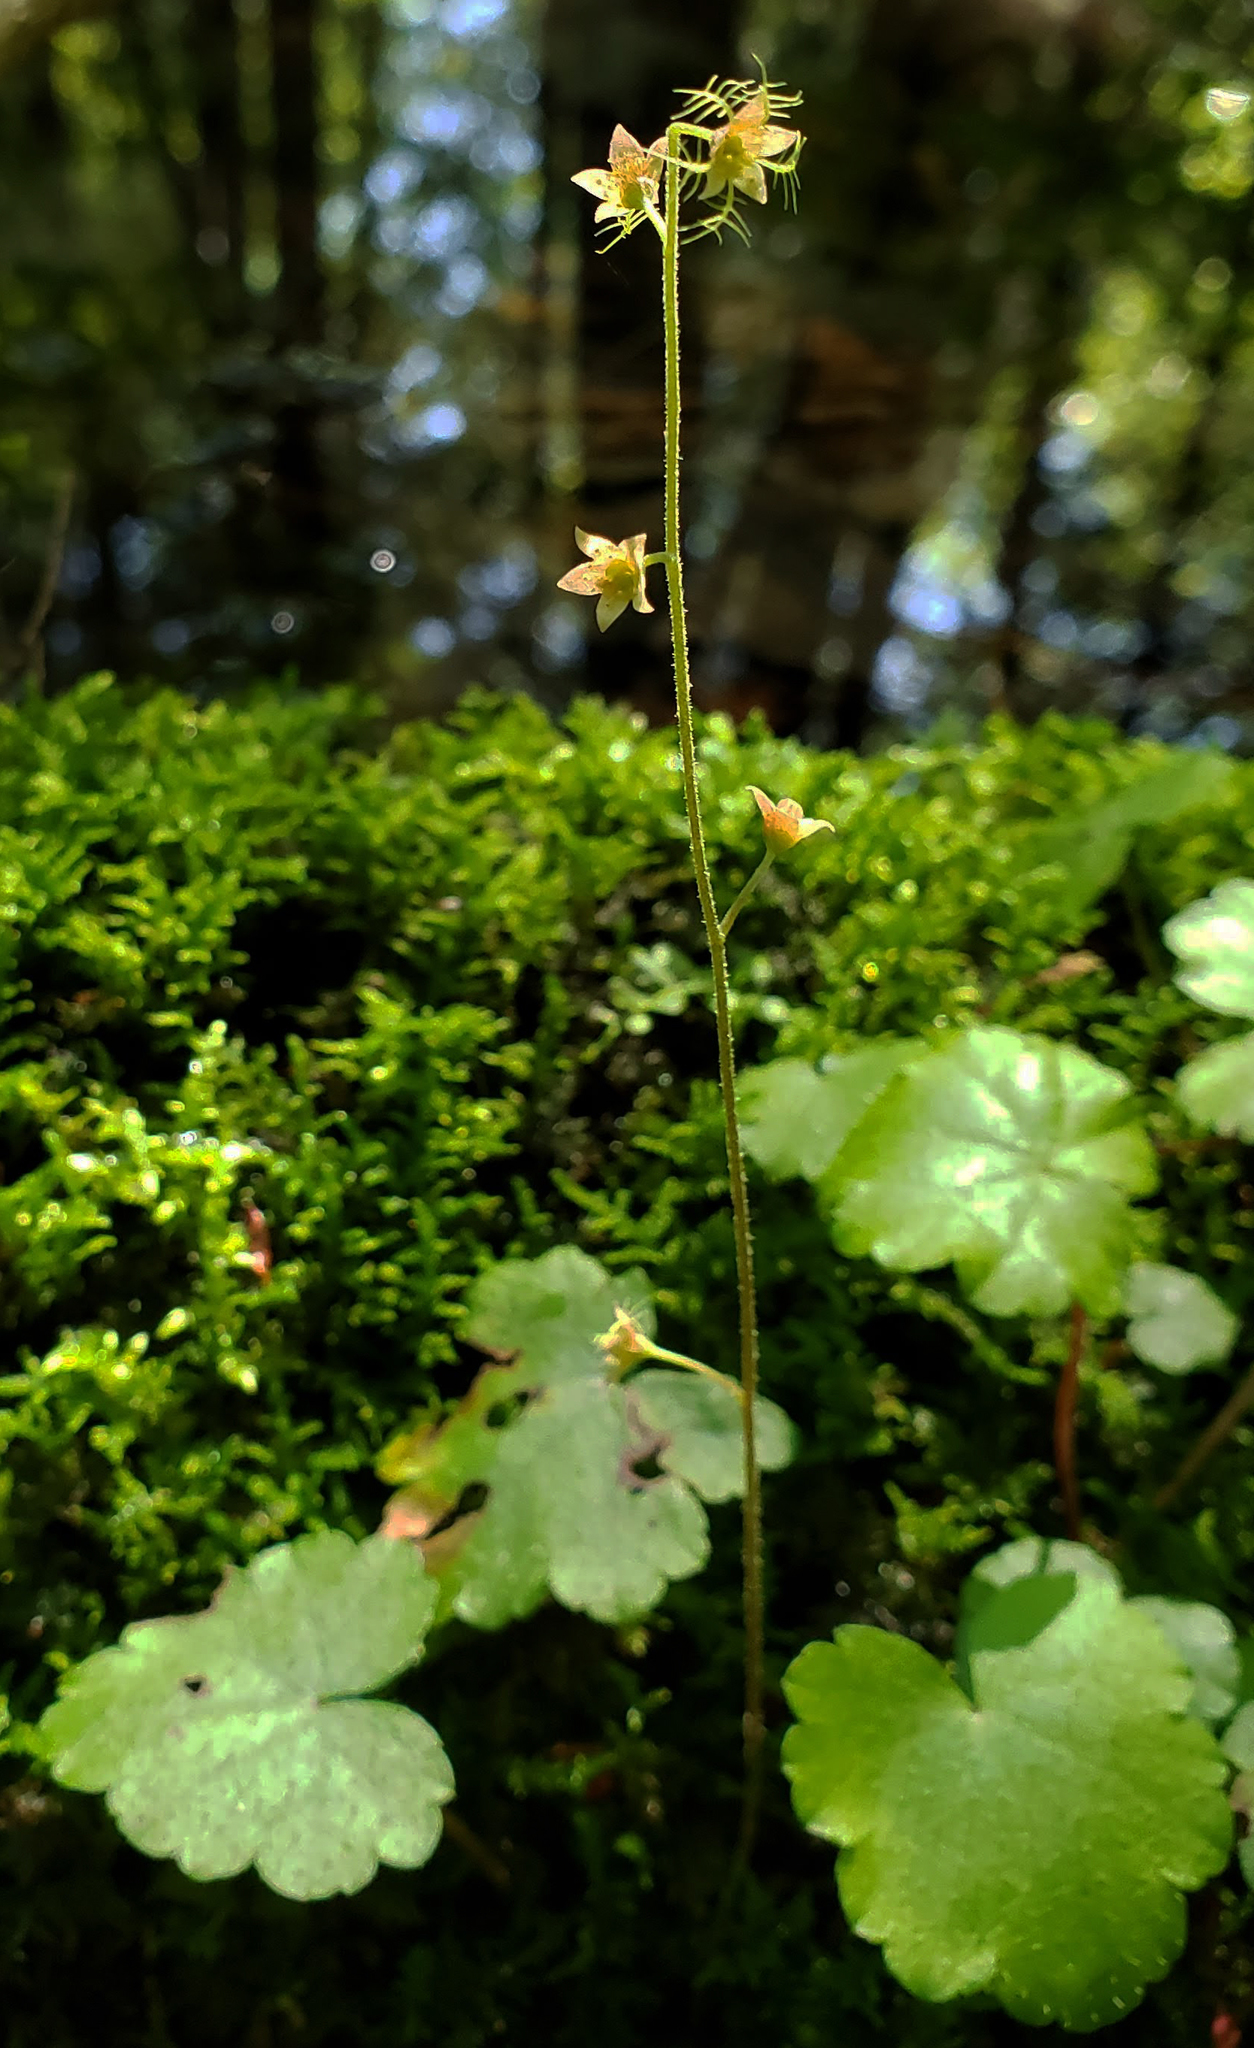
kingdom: Plantae
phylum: Tracheophyta
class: Magnoliopsida
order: Saxifragales
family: Saxifragaceae
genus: Mitella
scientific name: Mitella nuda
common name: Bare-stemmed bishop's-cap
